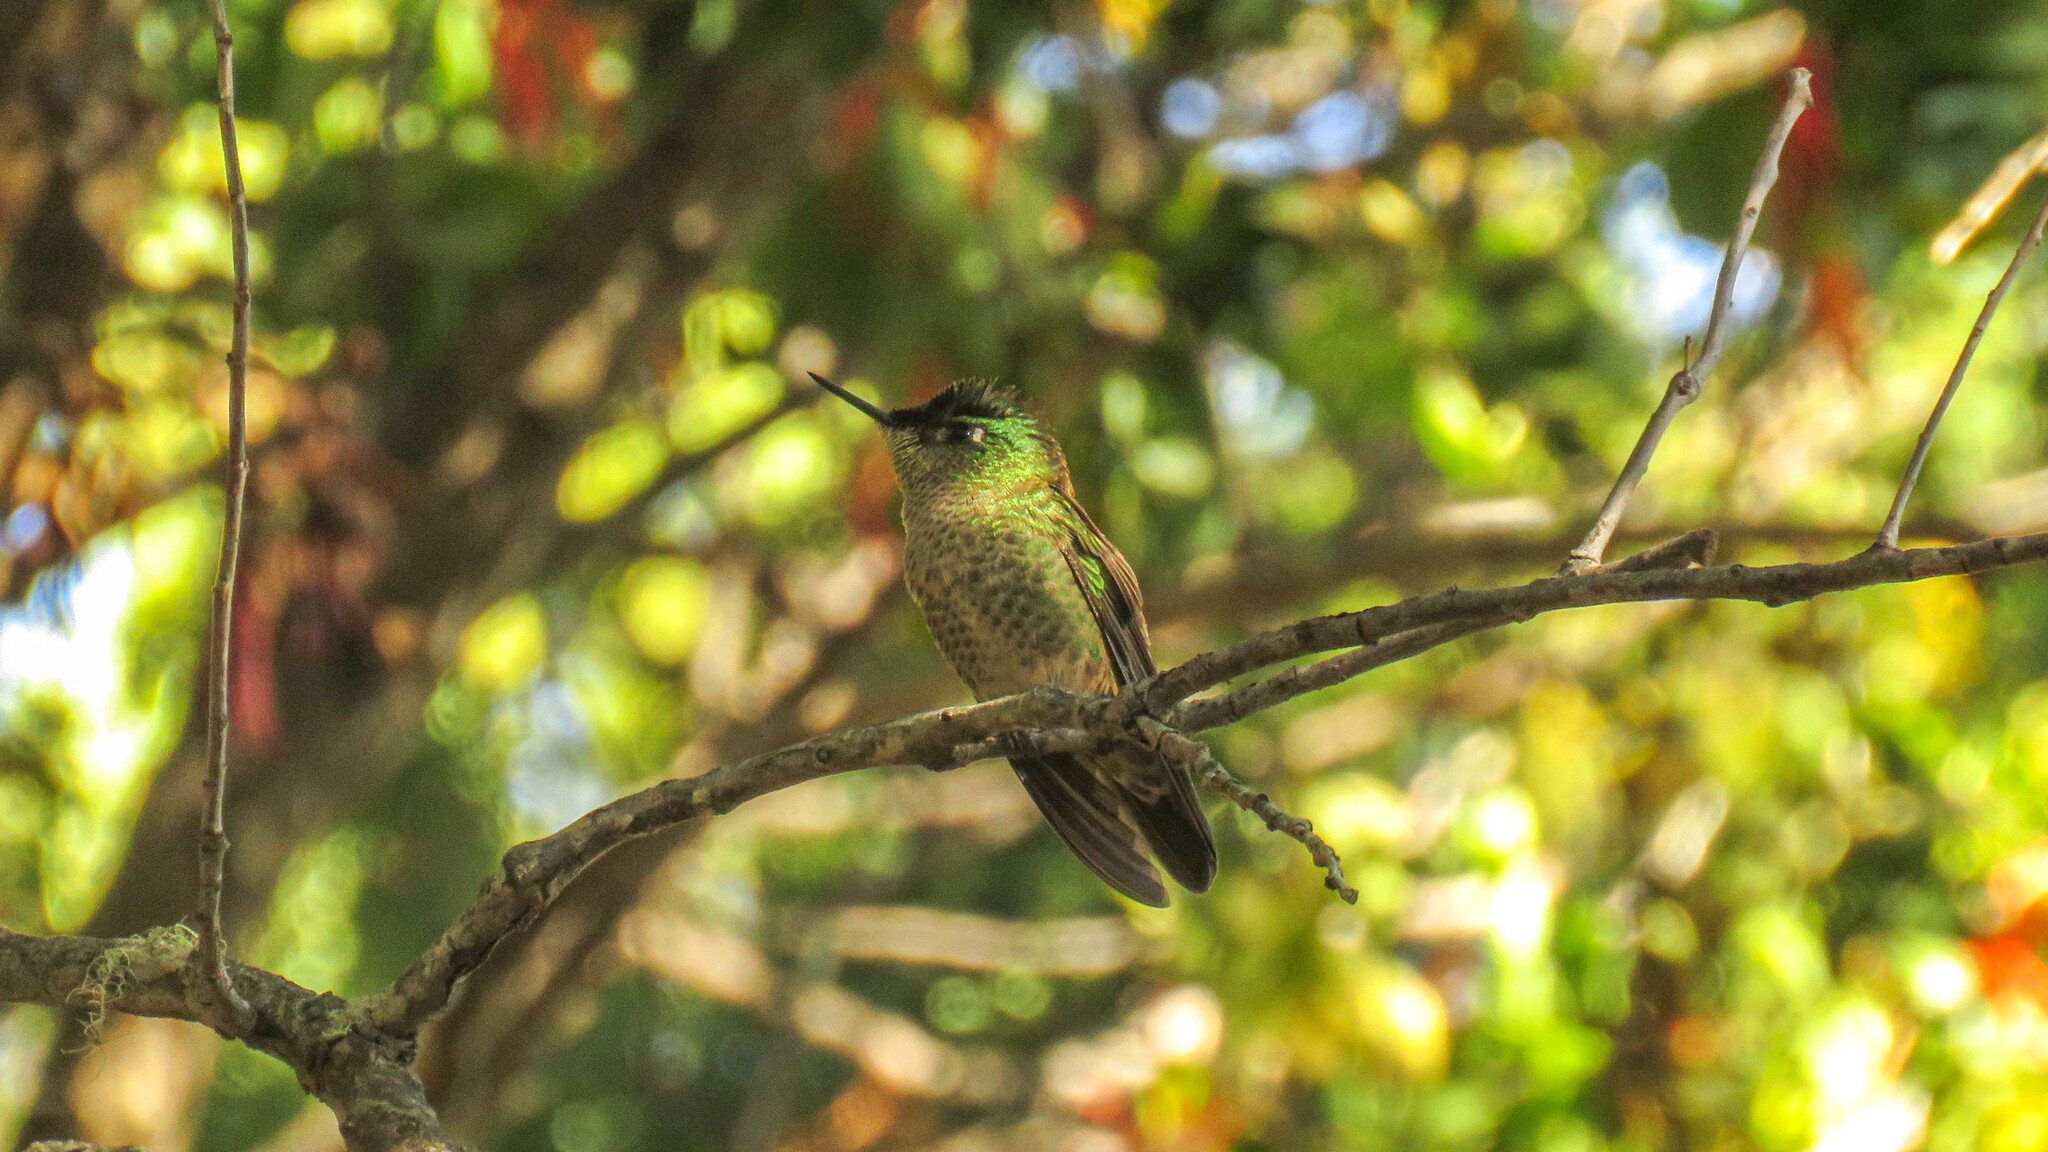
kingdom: Animalia
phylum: Chordata
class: Aves
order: Apodiformes
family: Trochilidae
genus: Sephanoides
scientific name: Sephanoides sephaniodes
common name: Green-backed firecrown
